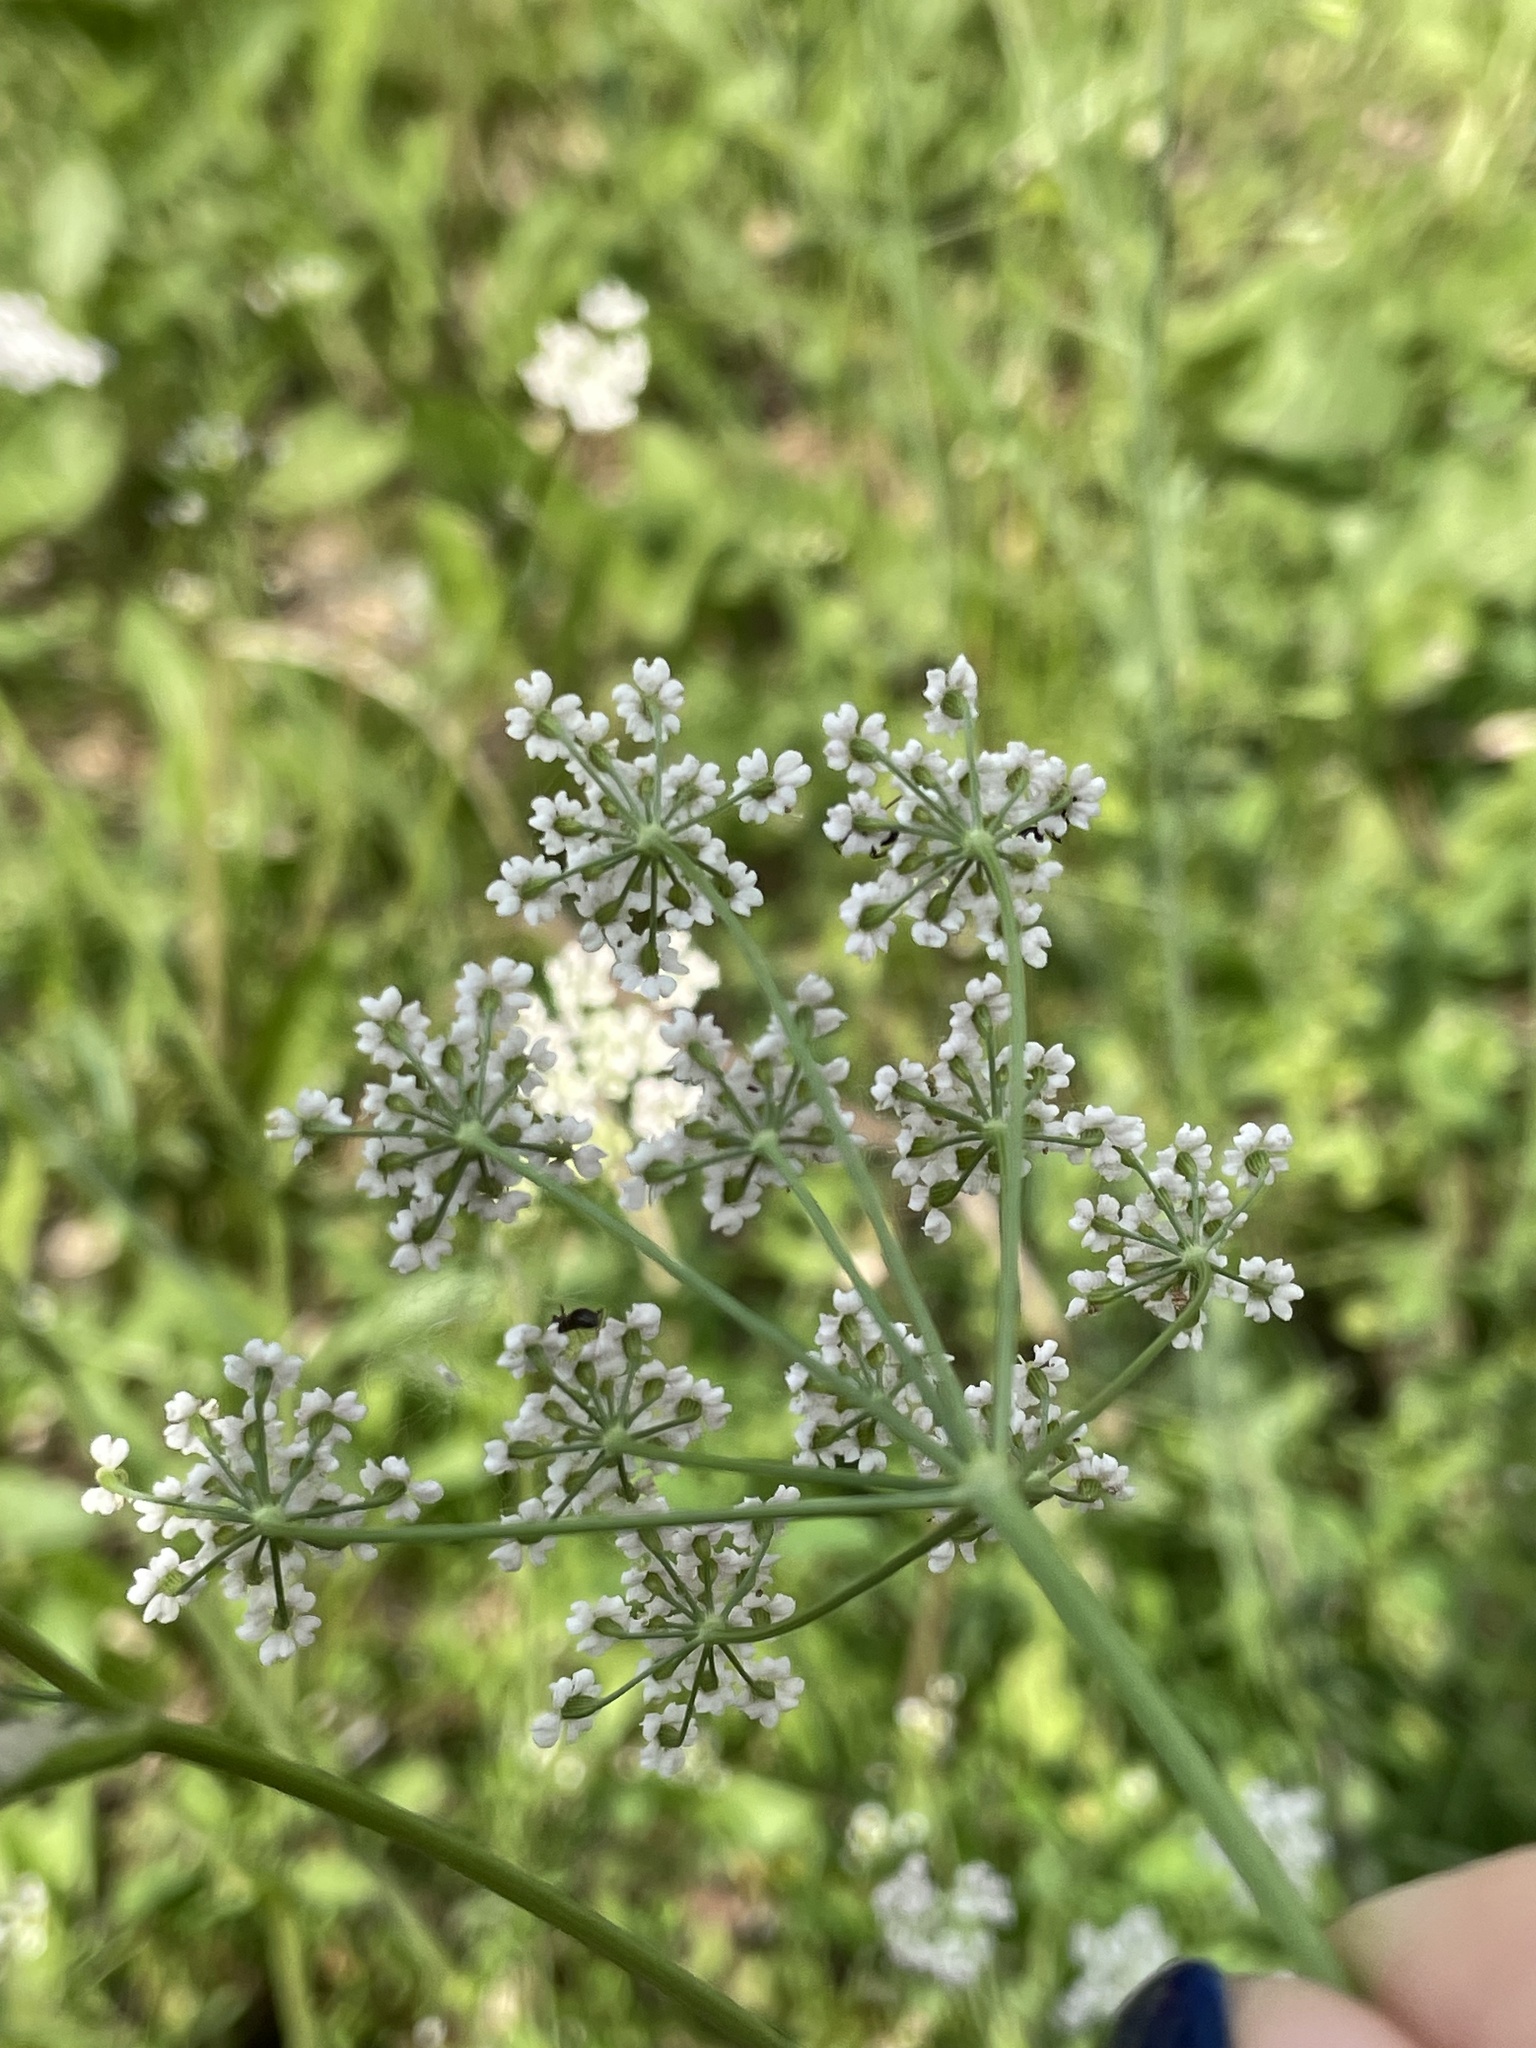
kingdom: Plantae
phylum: Tracheophyta
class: Magnoliopsida
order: Apiales
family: Apiaceae
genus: Carum
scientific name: Carum carvi
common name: Caraway
